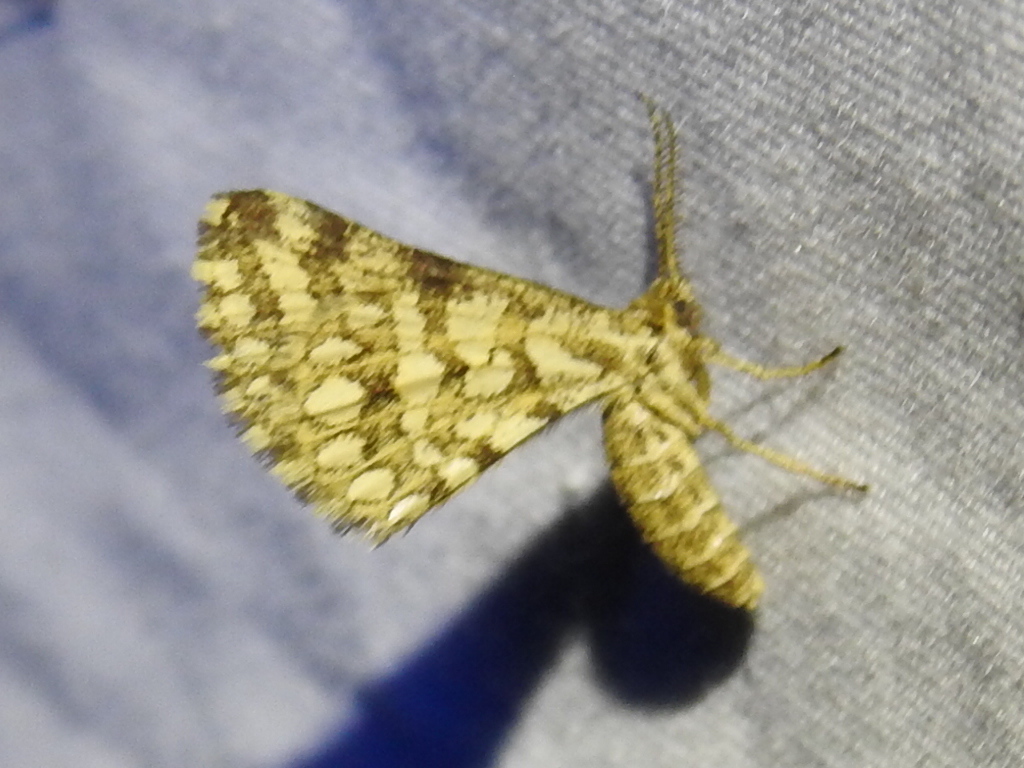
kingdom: Animalia
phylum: Arthropoda
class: Insecta
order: Lepidoptera
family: Geometridae
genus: Narraga
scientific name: Narraga fimetaria
